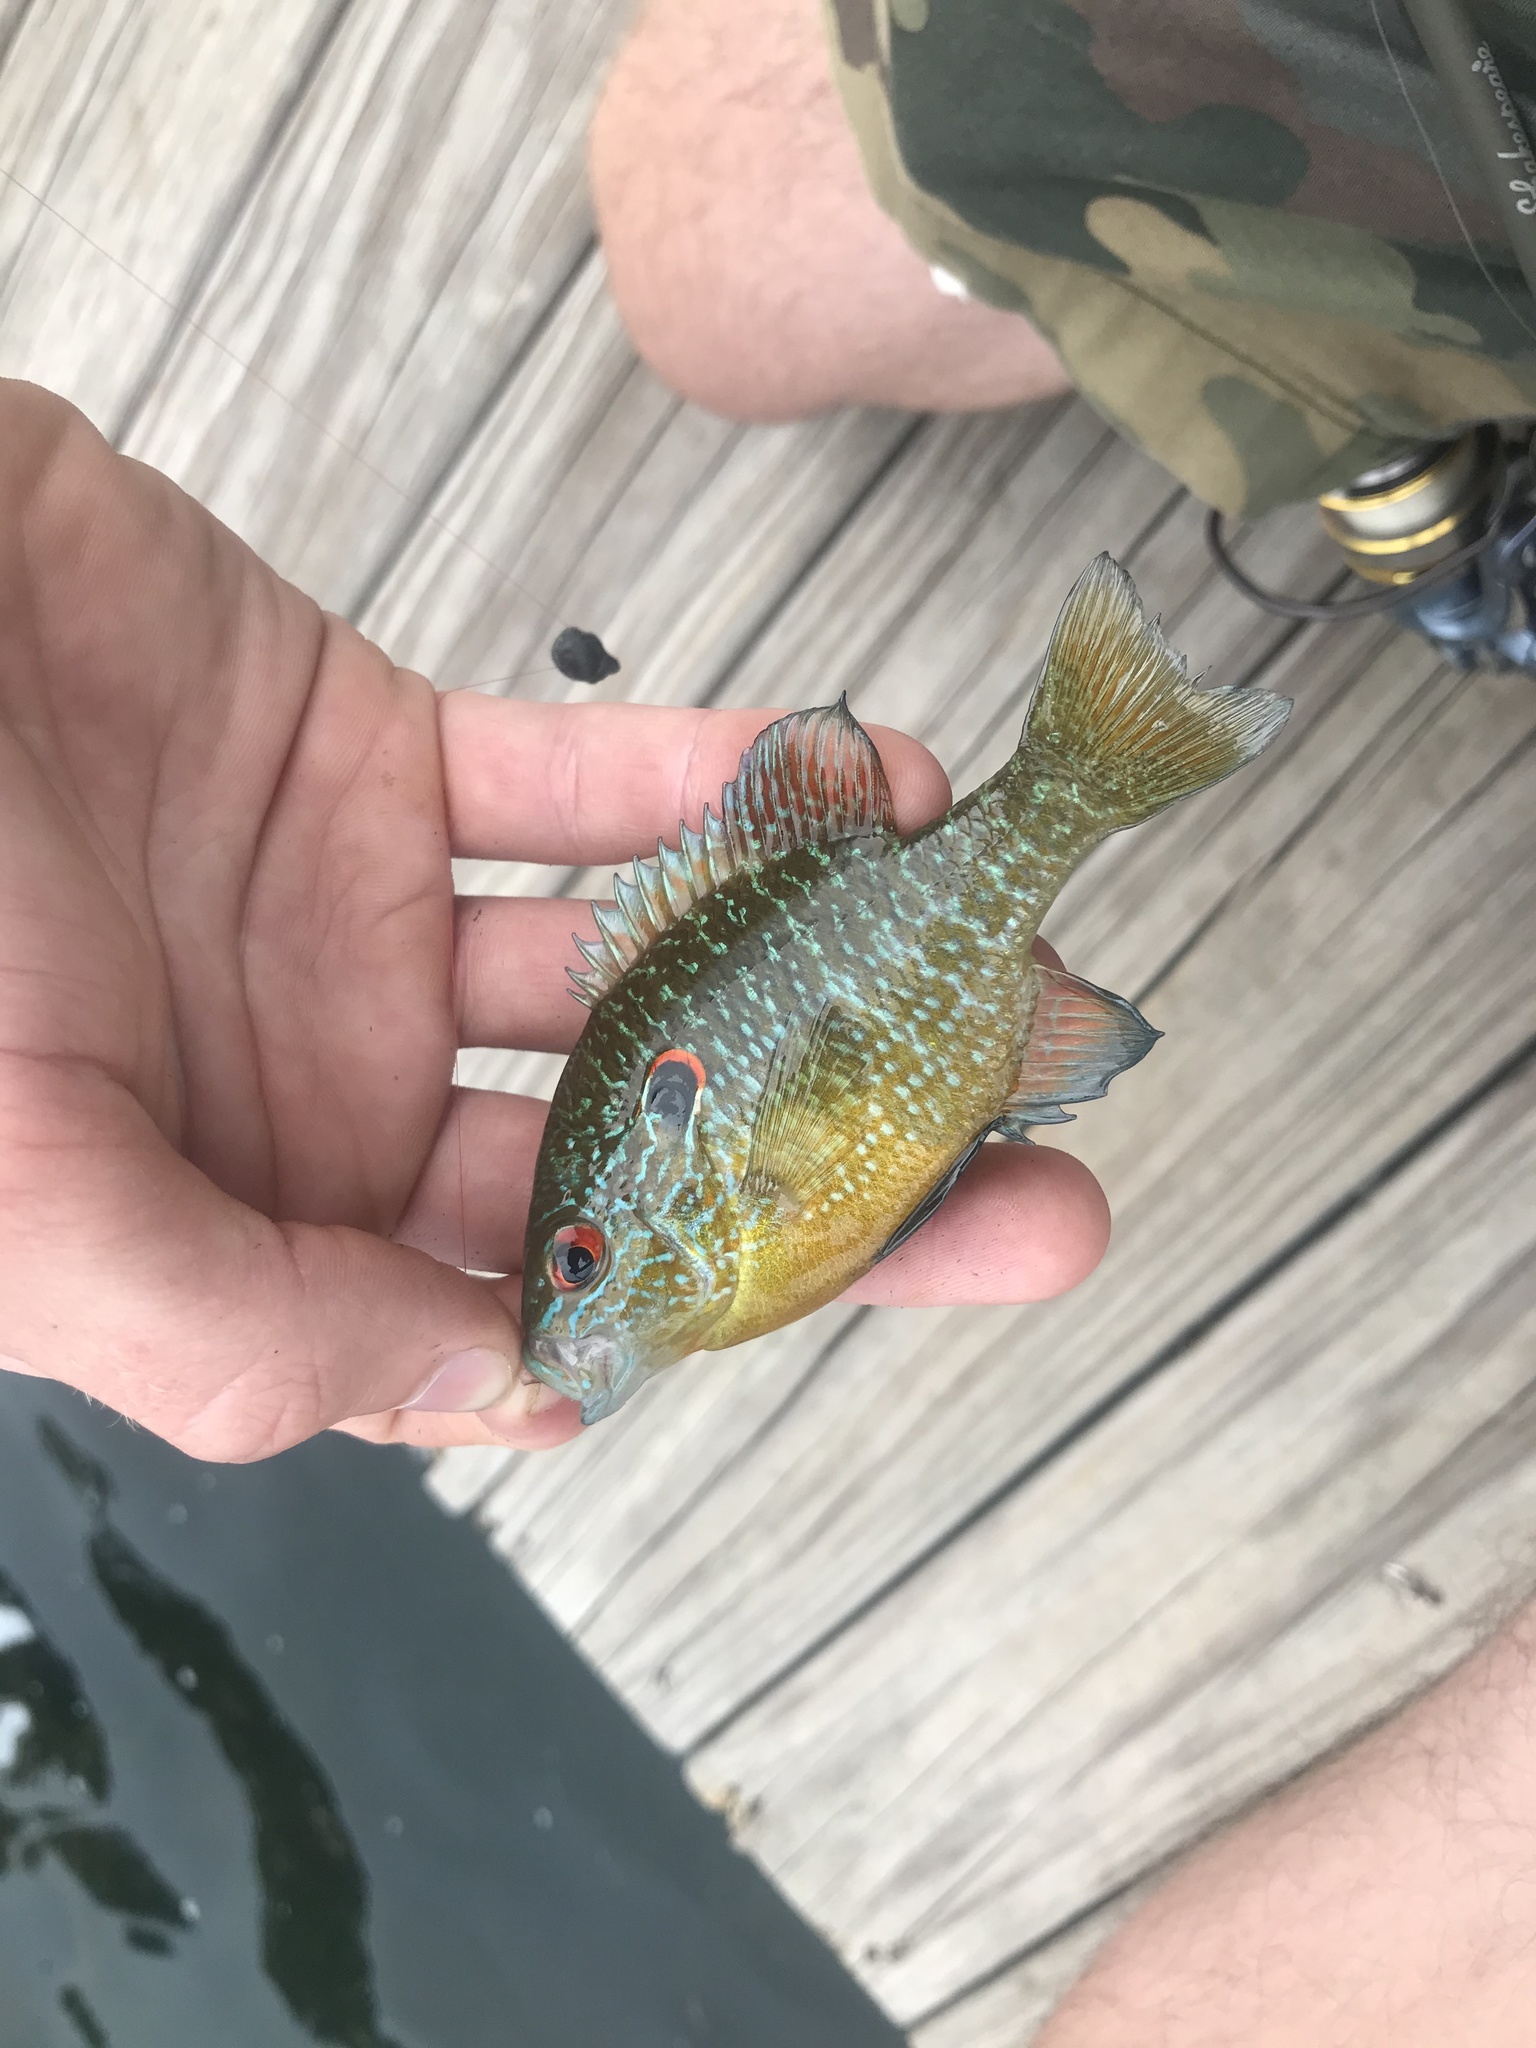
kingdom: Animalia
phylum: Chordata
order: Perciformes
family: Centrarchidae
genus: Lepomis
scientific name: Lepomis peltastes
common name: Northern sunfish
